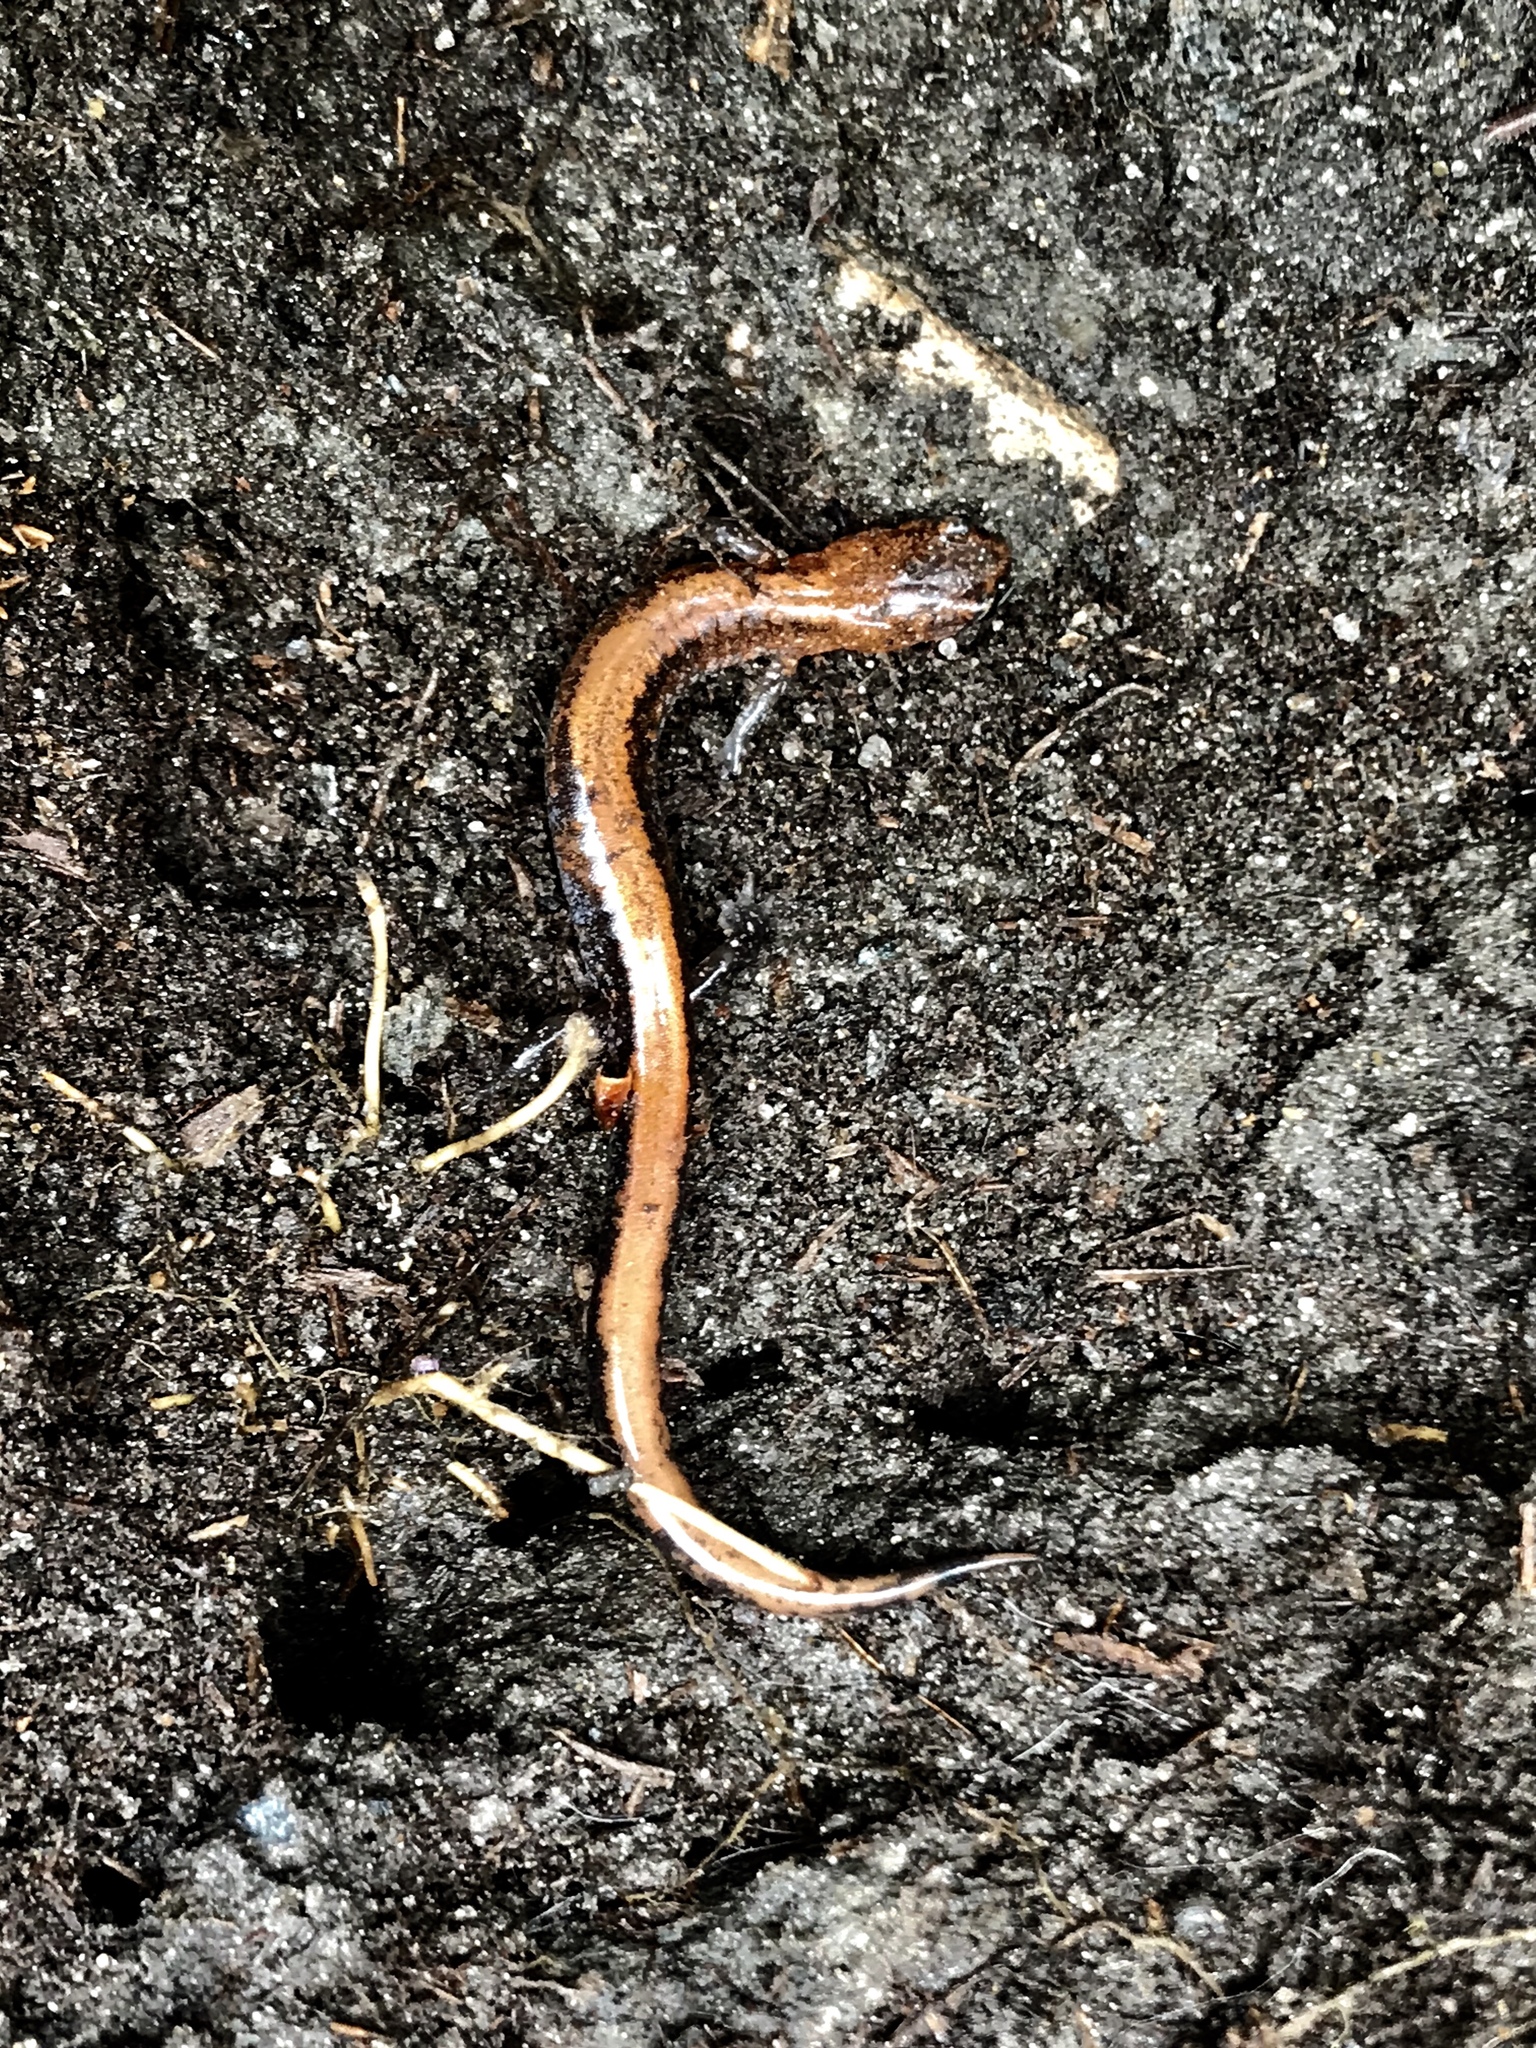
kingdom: Animalia
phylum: Chordata
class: Amphibia
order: Caudata
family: Plethodontidae
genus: Plethodon
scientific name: Plethodon cinereus
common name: Redback salamander
